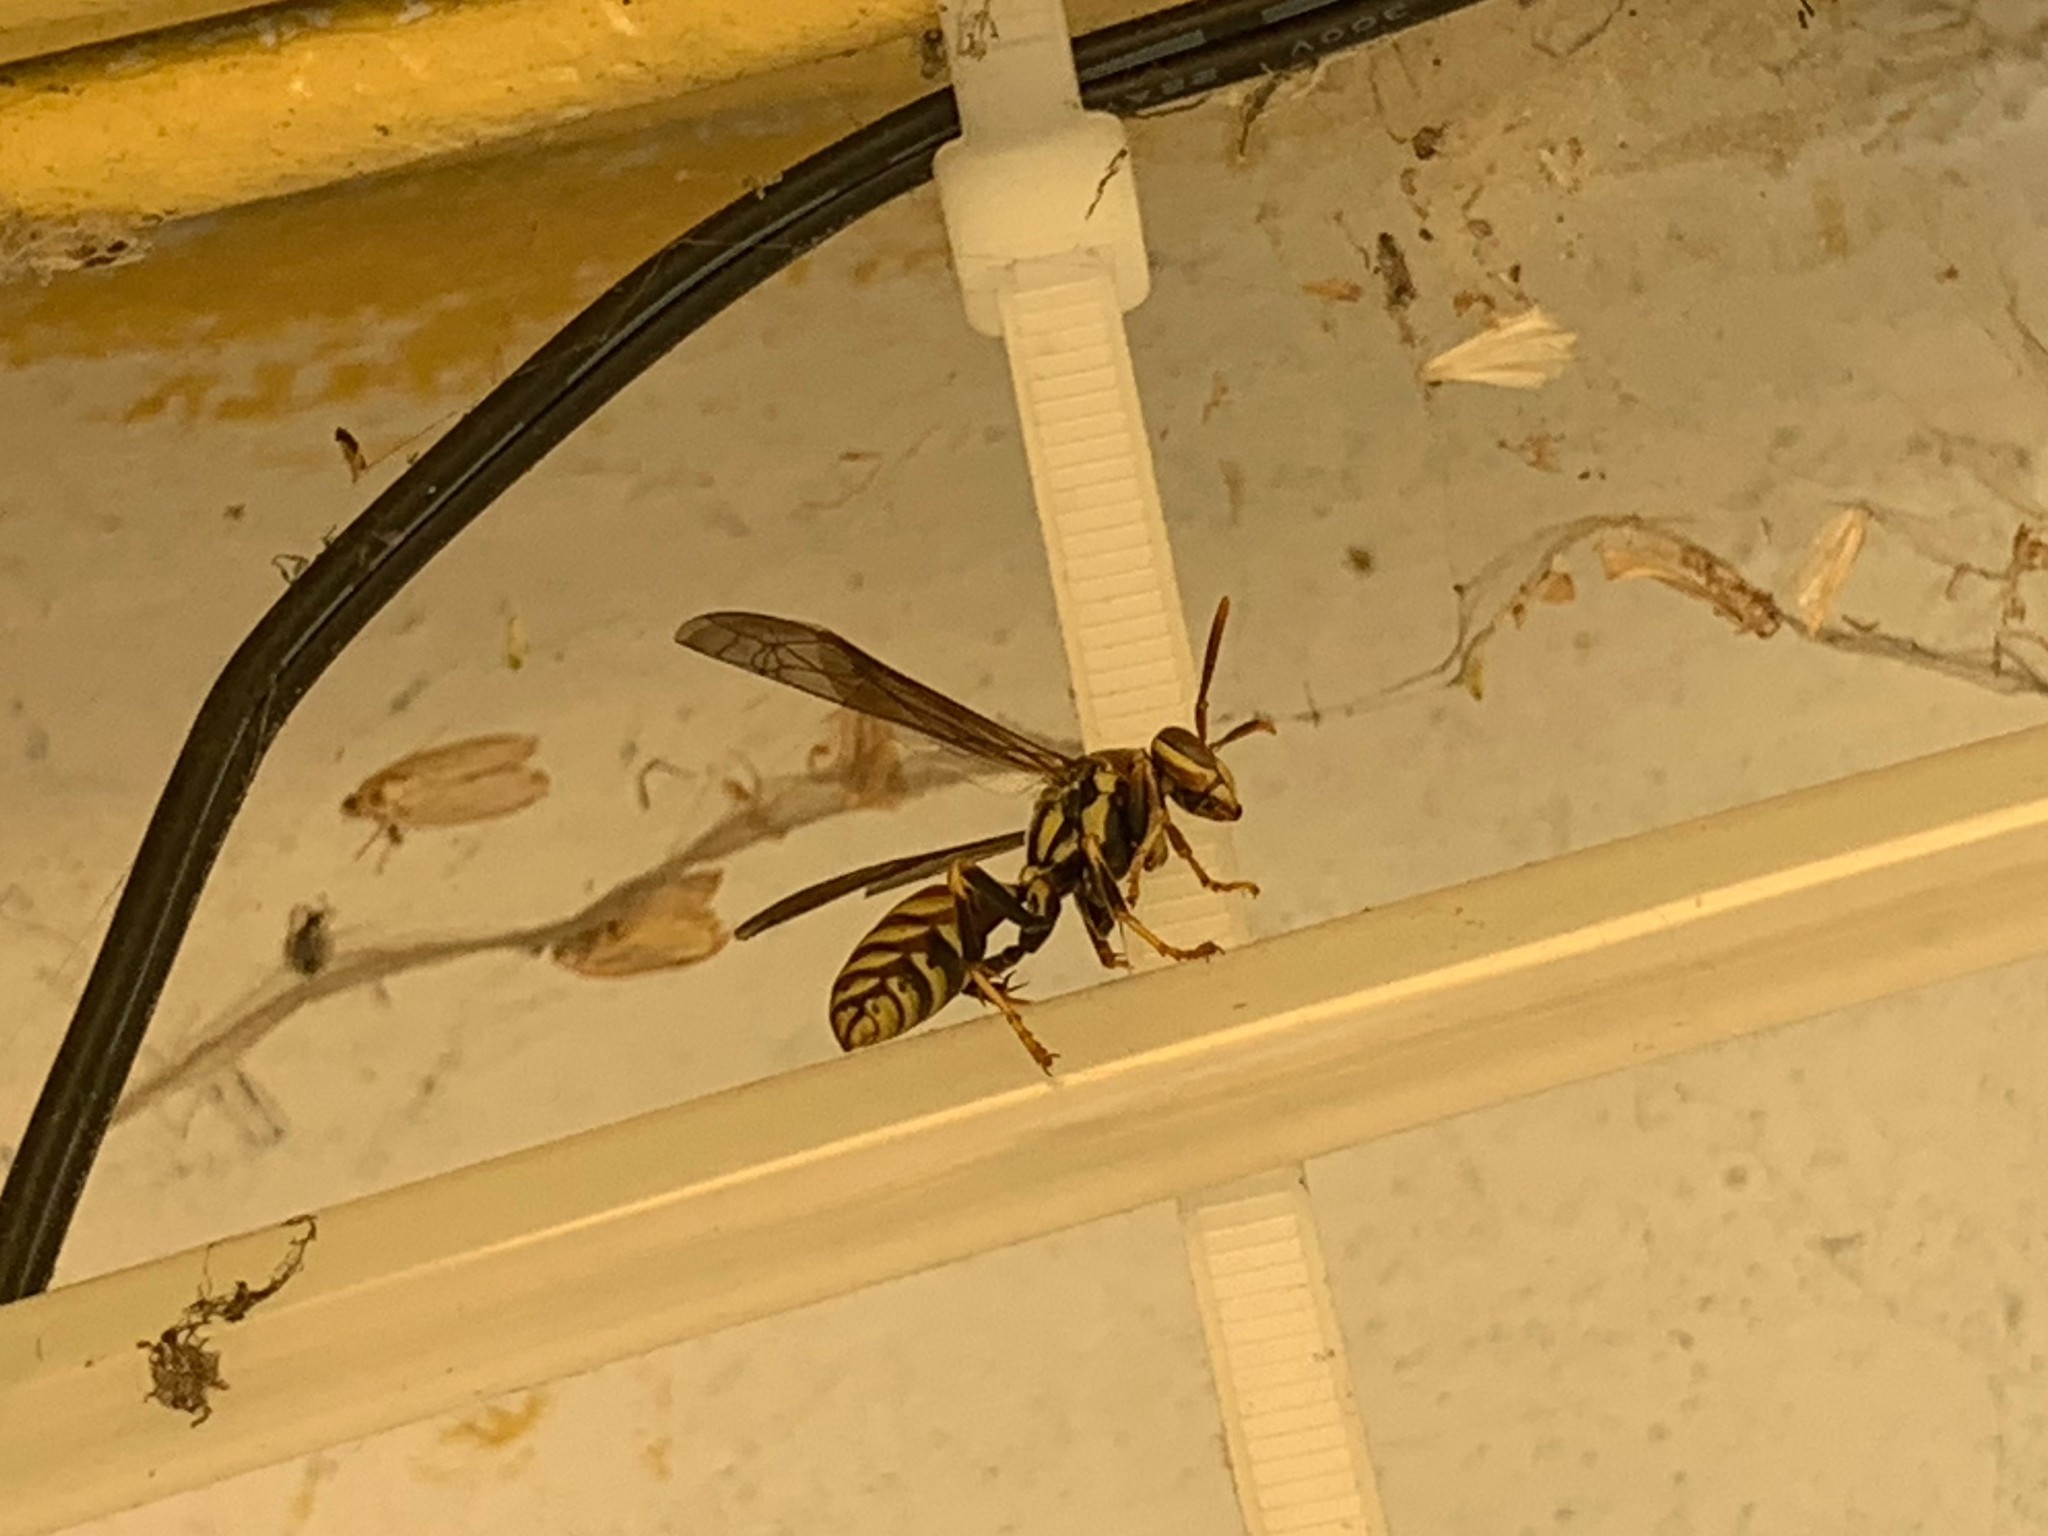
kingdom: Animalia
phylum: Arthropoda
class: Insecta
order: Hymenoptera
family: Eumenidae
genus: Polistes
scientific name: Polistes exclamans
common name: Paper wasp
